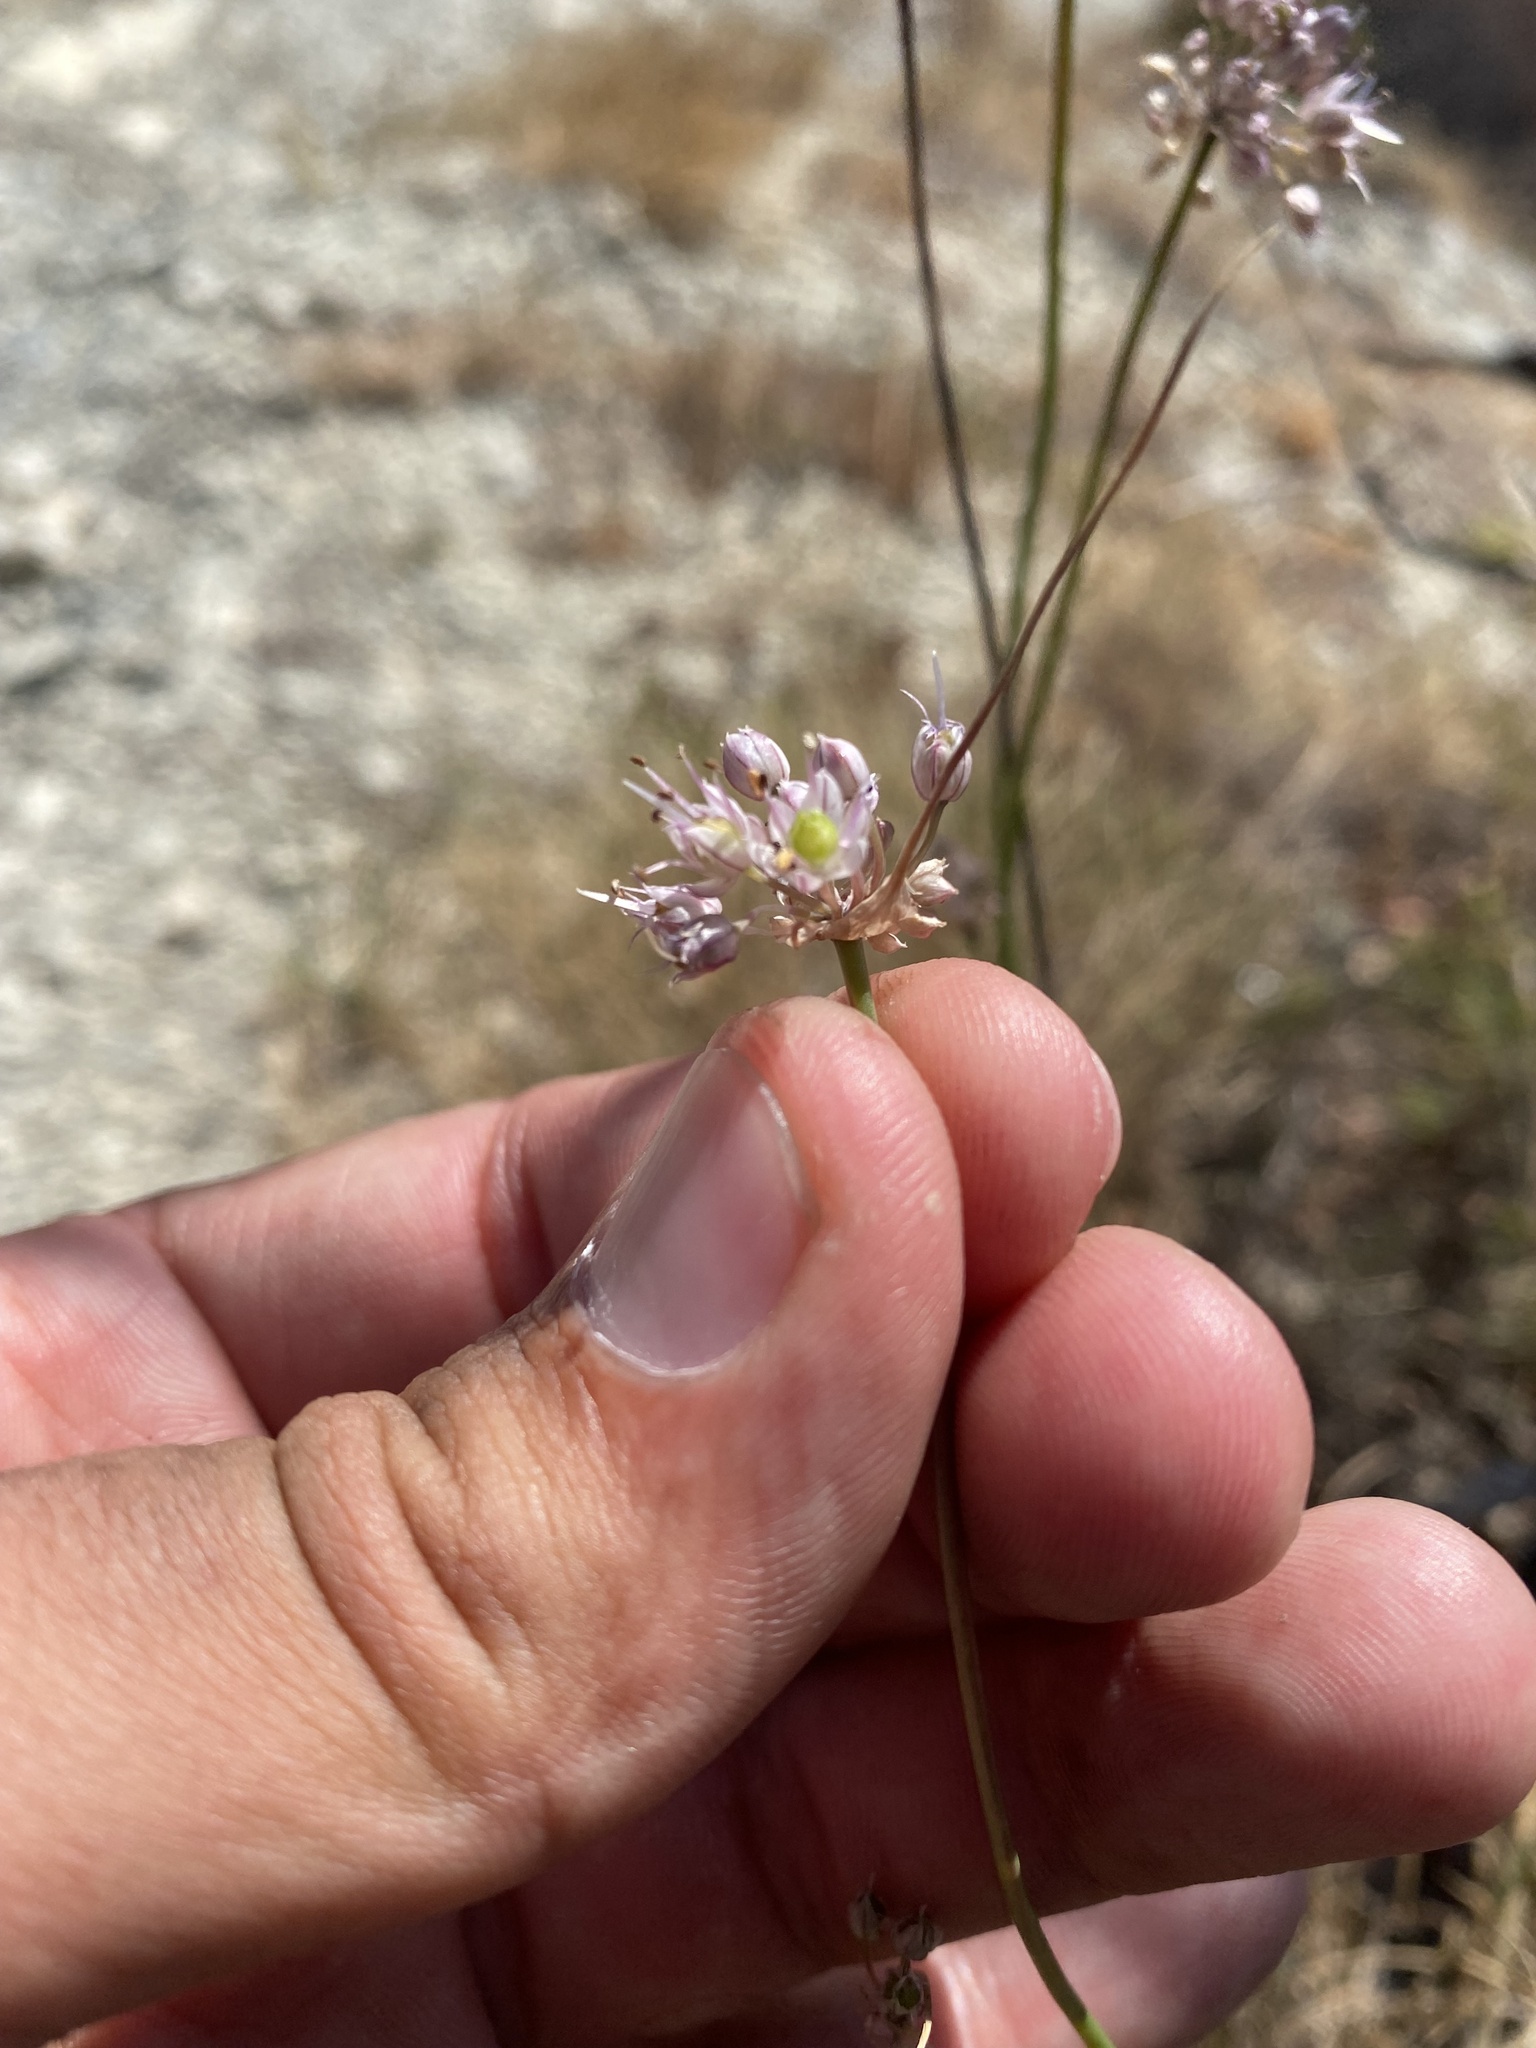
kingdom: Plantae
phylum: Tracheophyta
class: Liliopsida
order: Asparagales
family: Amaryllidaceae
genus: Allium
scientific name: Allium psebaicum
